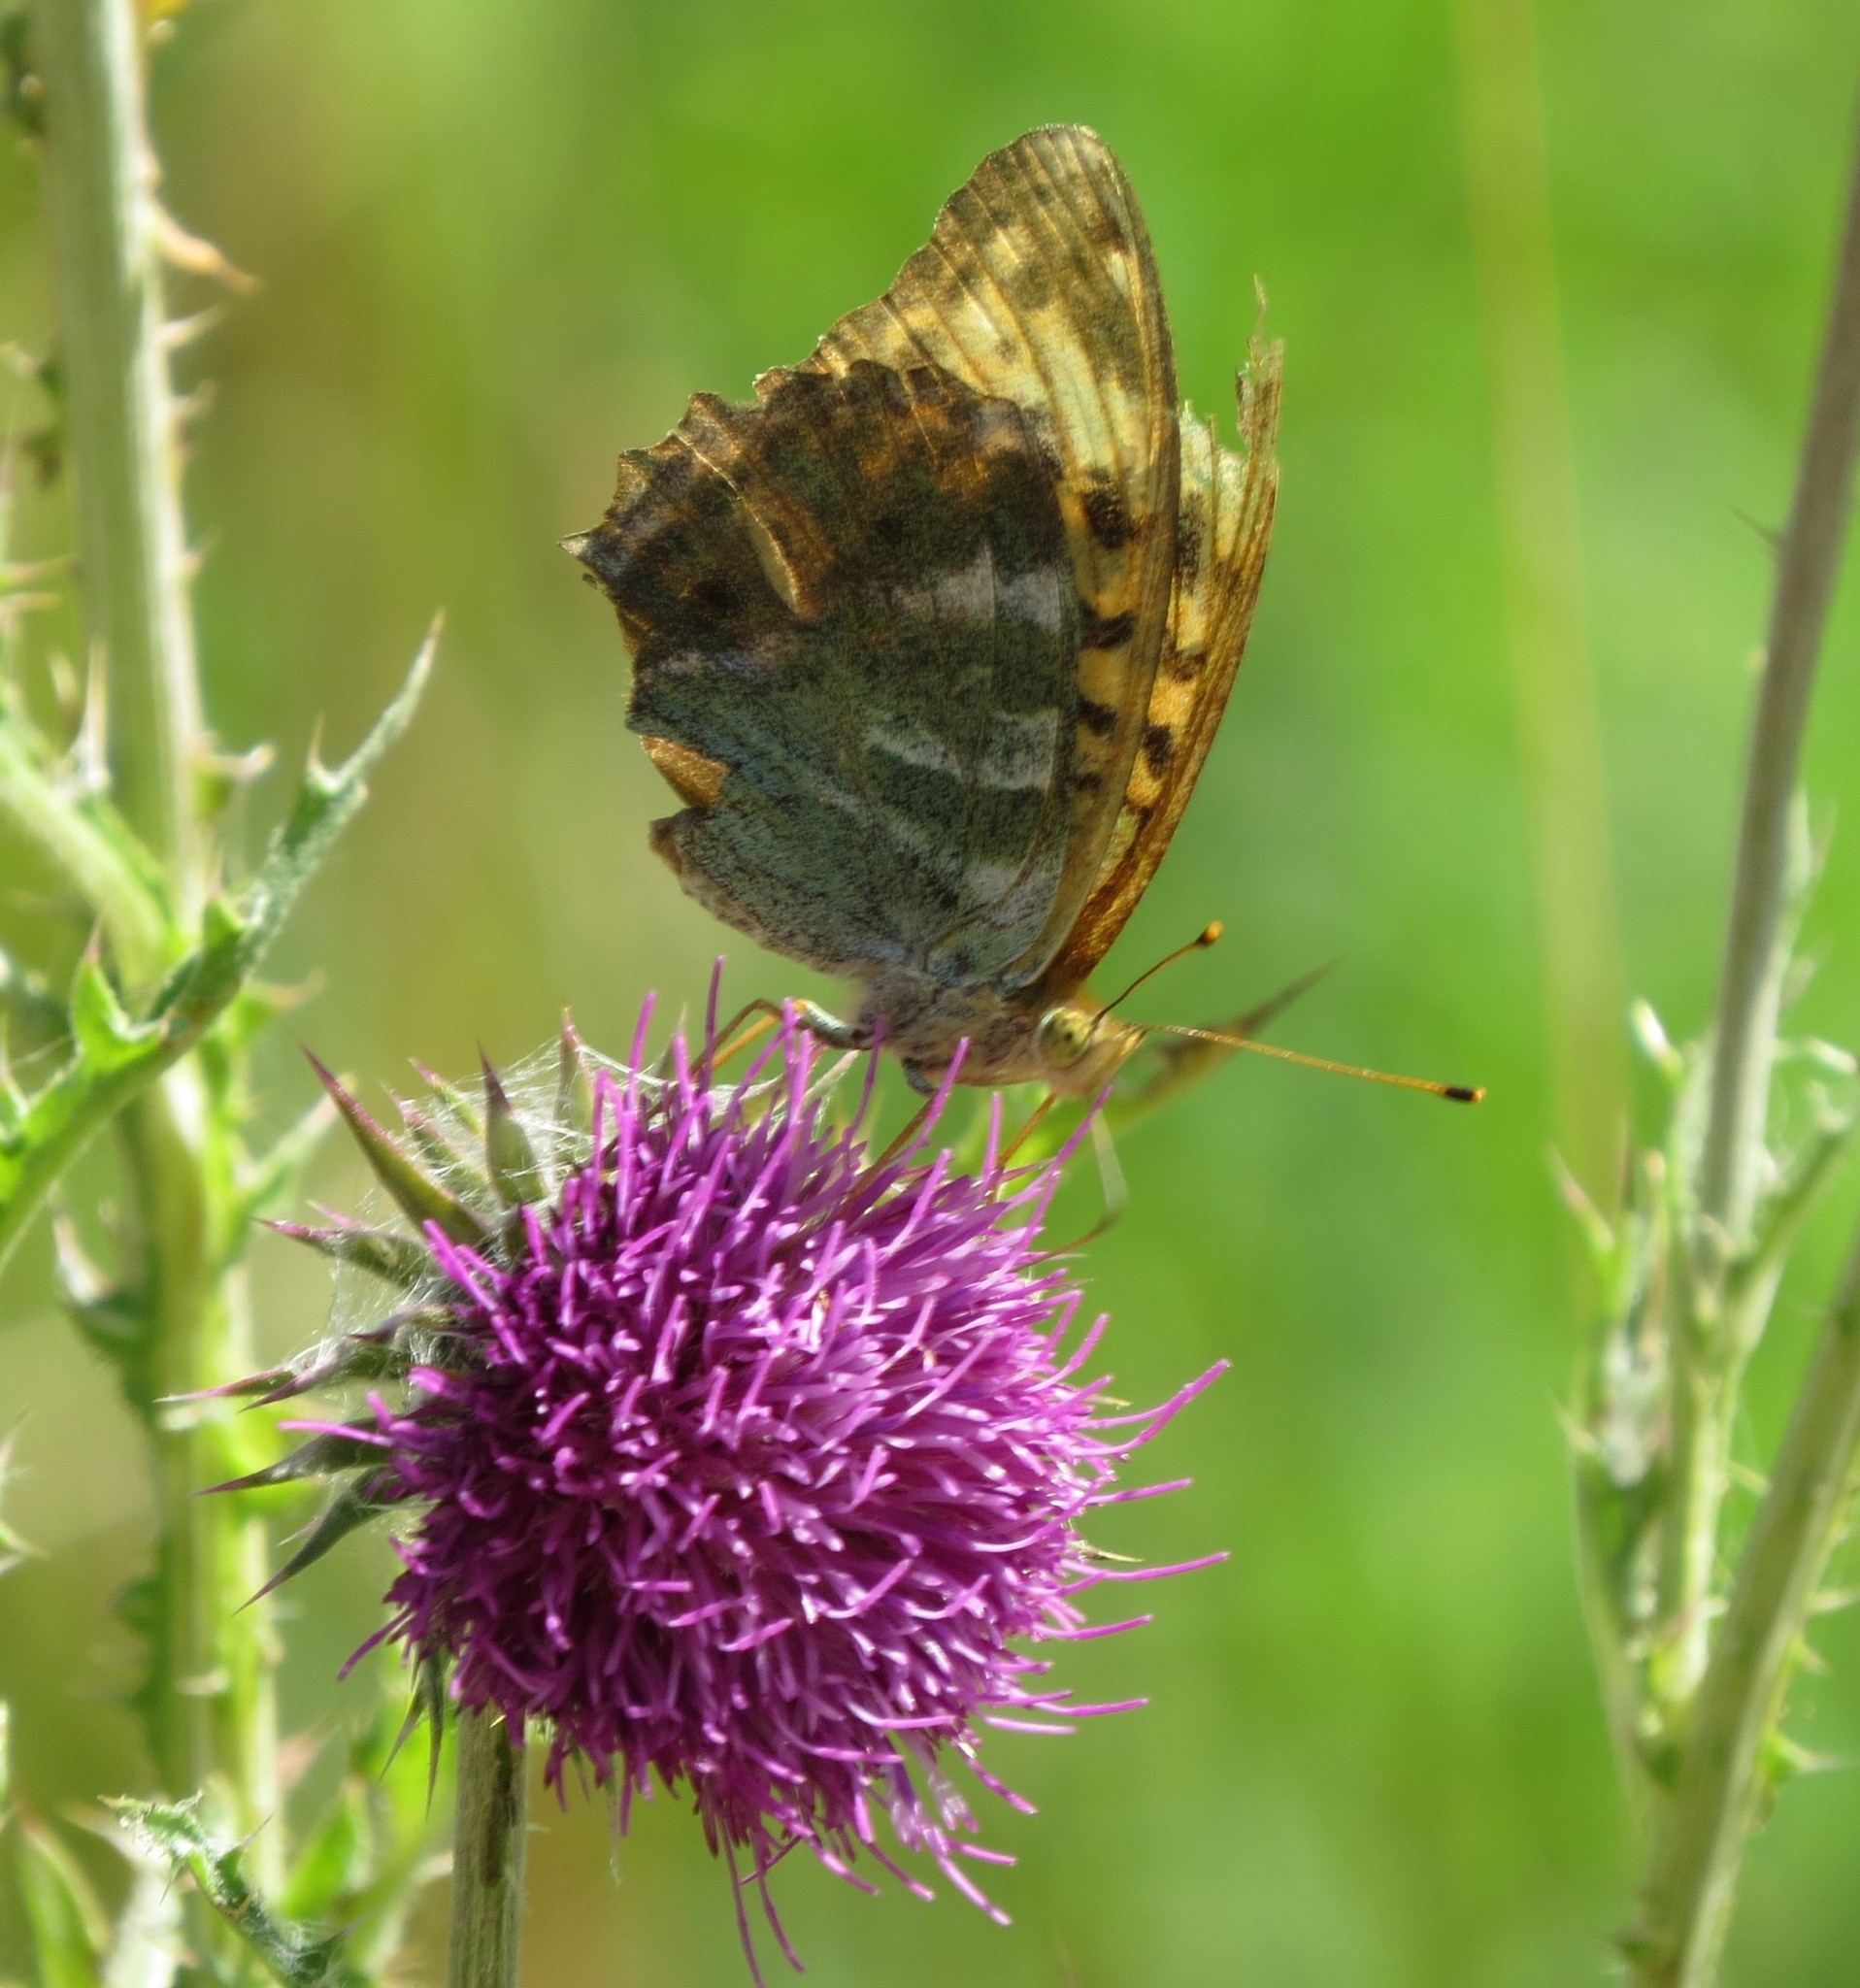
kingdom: Animalia
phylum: Arthropoda
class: Insecta
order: Lepidoptera
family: Nymphalidae
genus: Argynnis
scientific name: Argynnis paphia
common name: Silver-washed fritillary
